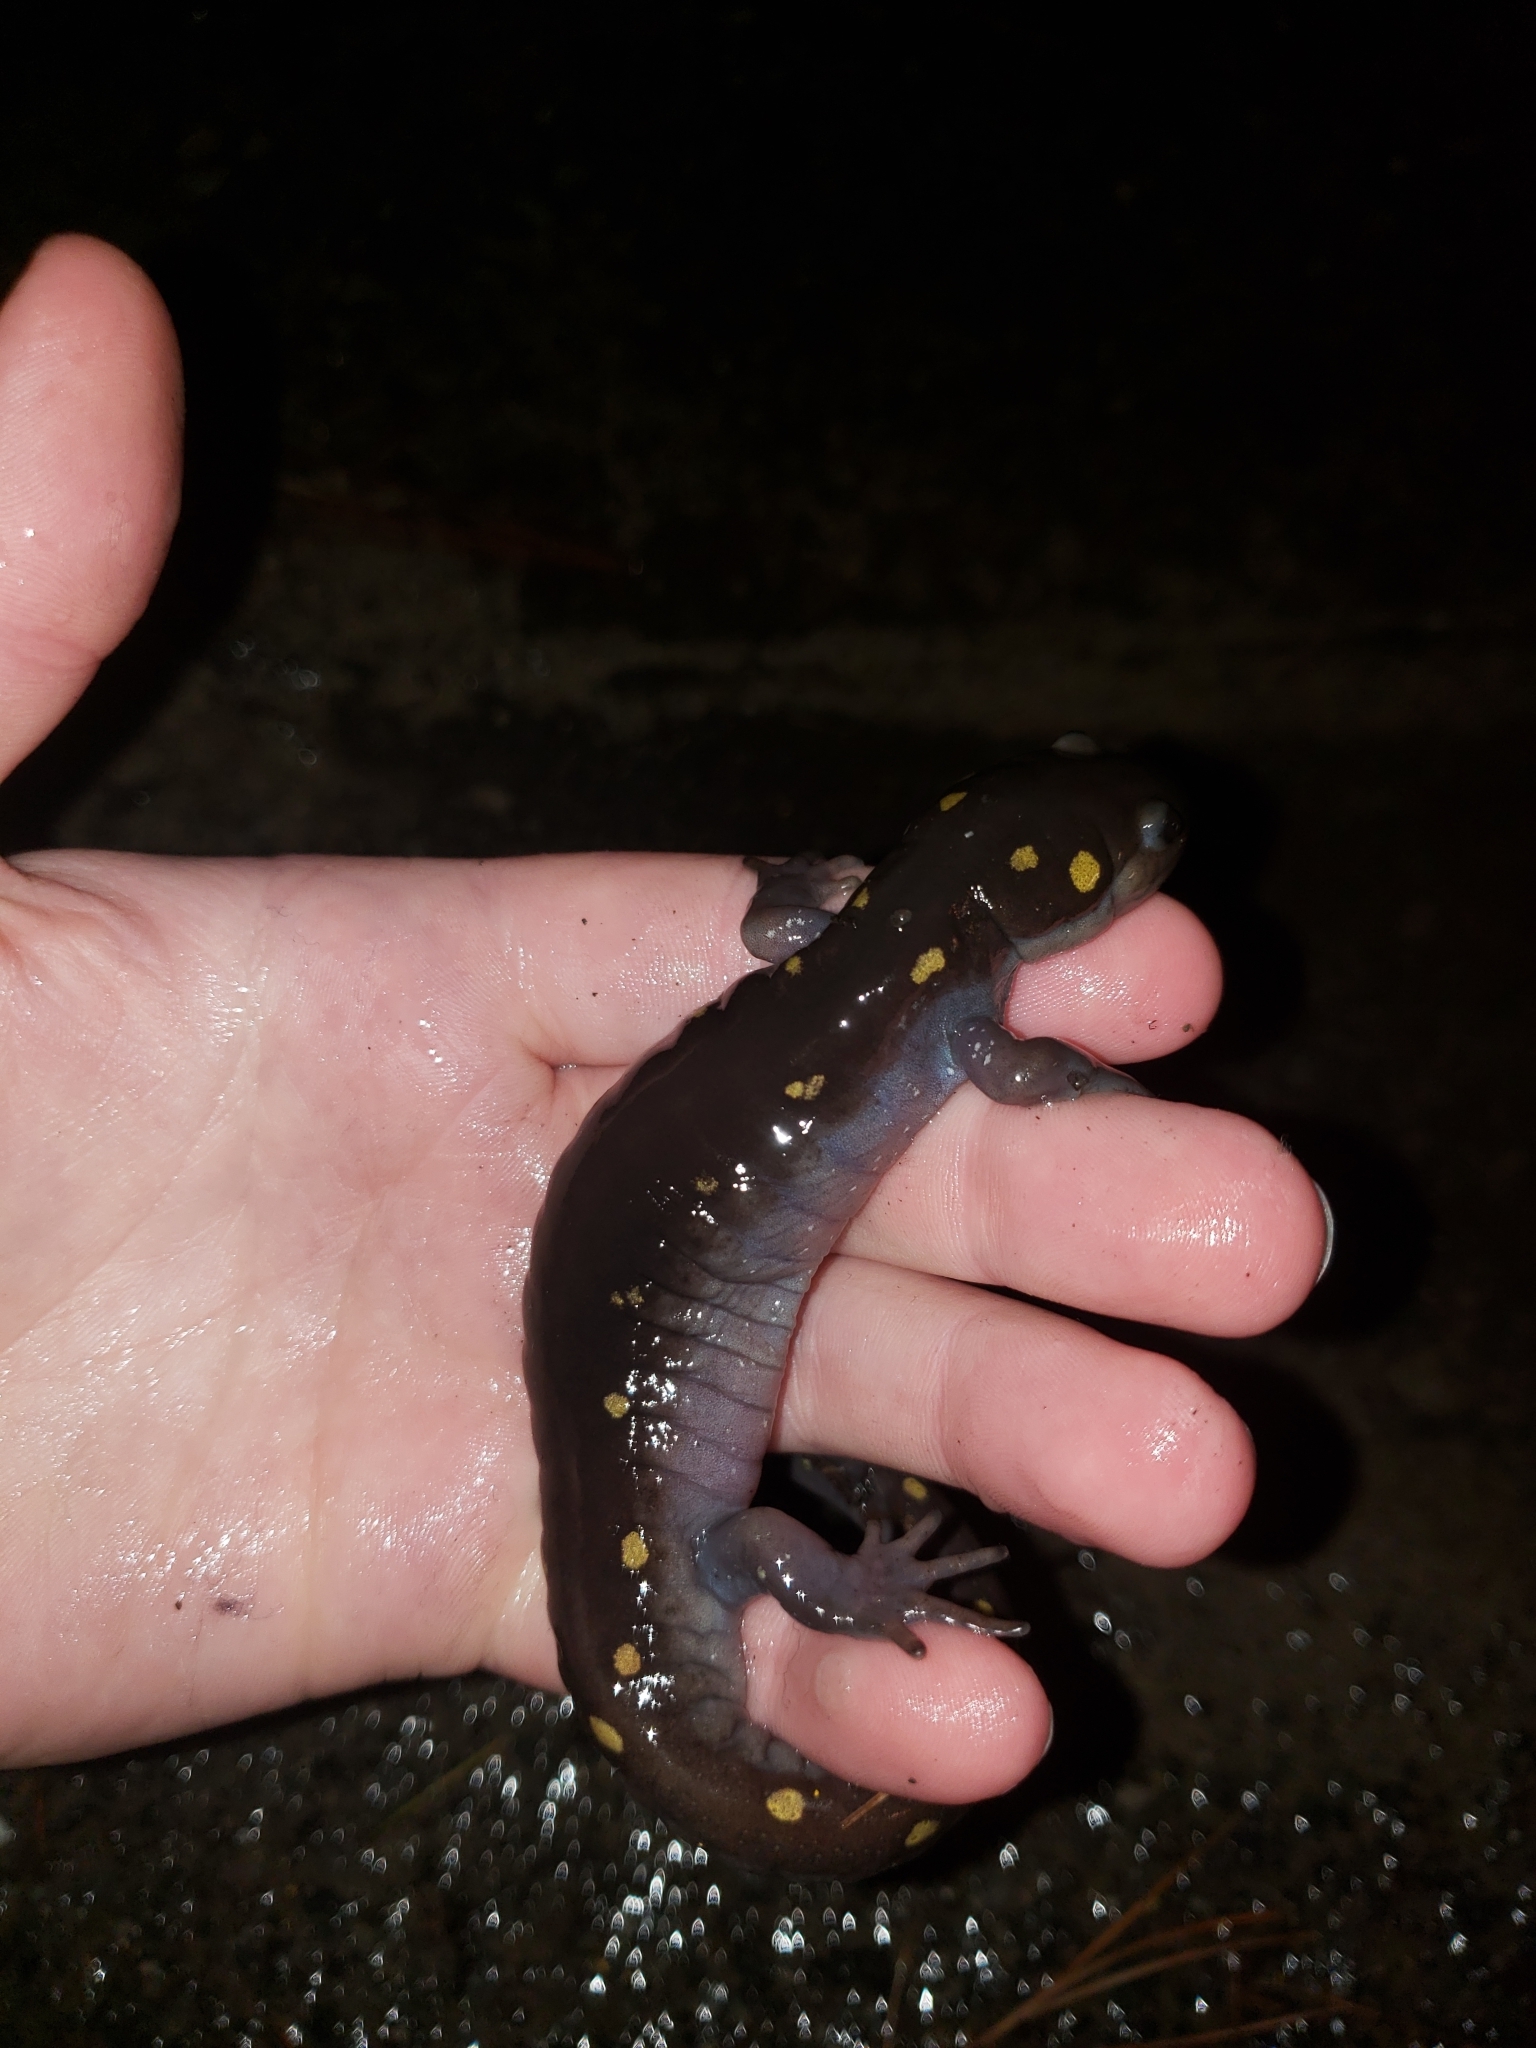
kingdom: Animalia
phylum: Chordata
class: Amphibia
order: Caudata
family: Ambystomatidae
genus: Ambystoma
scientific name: Ambystoma maculatum
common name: Spotted salamander
